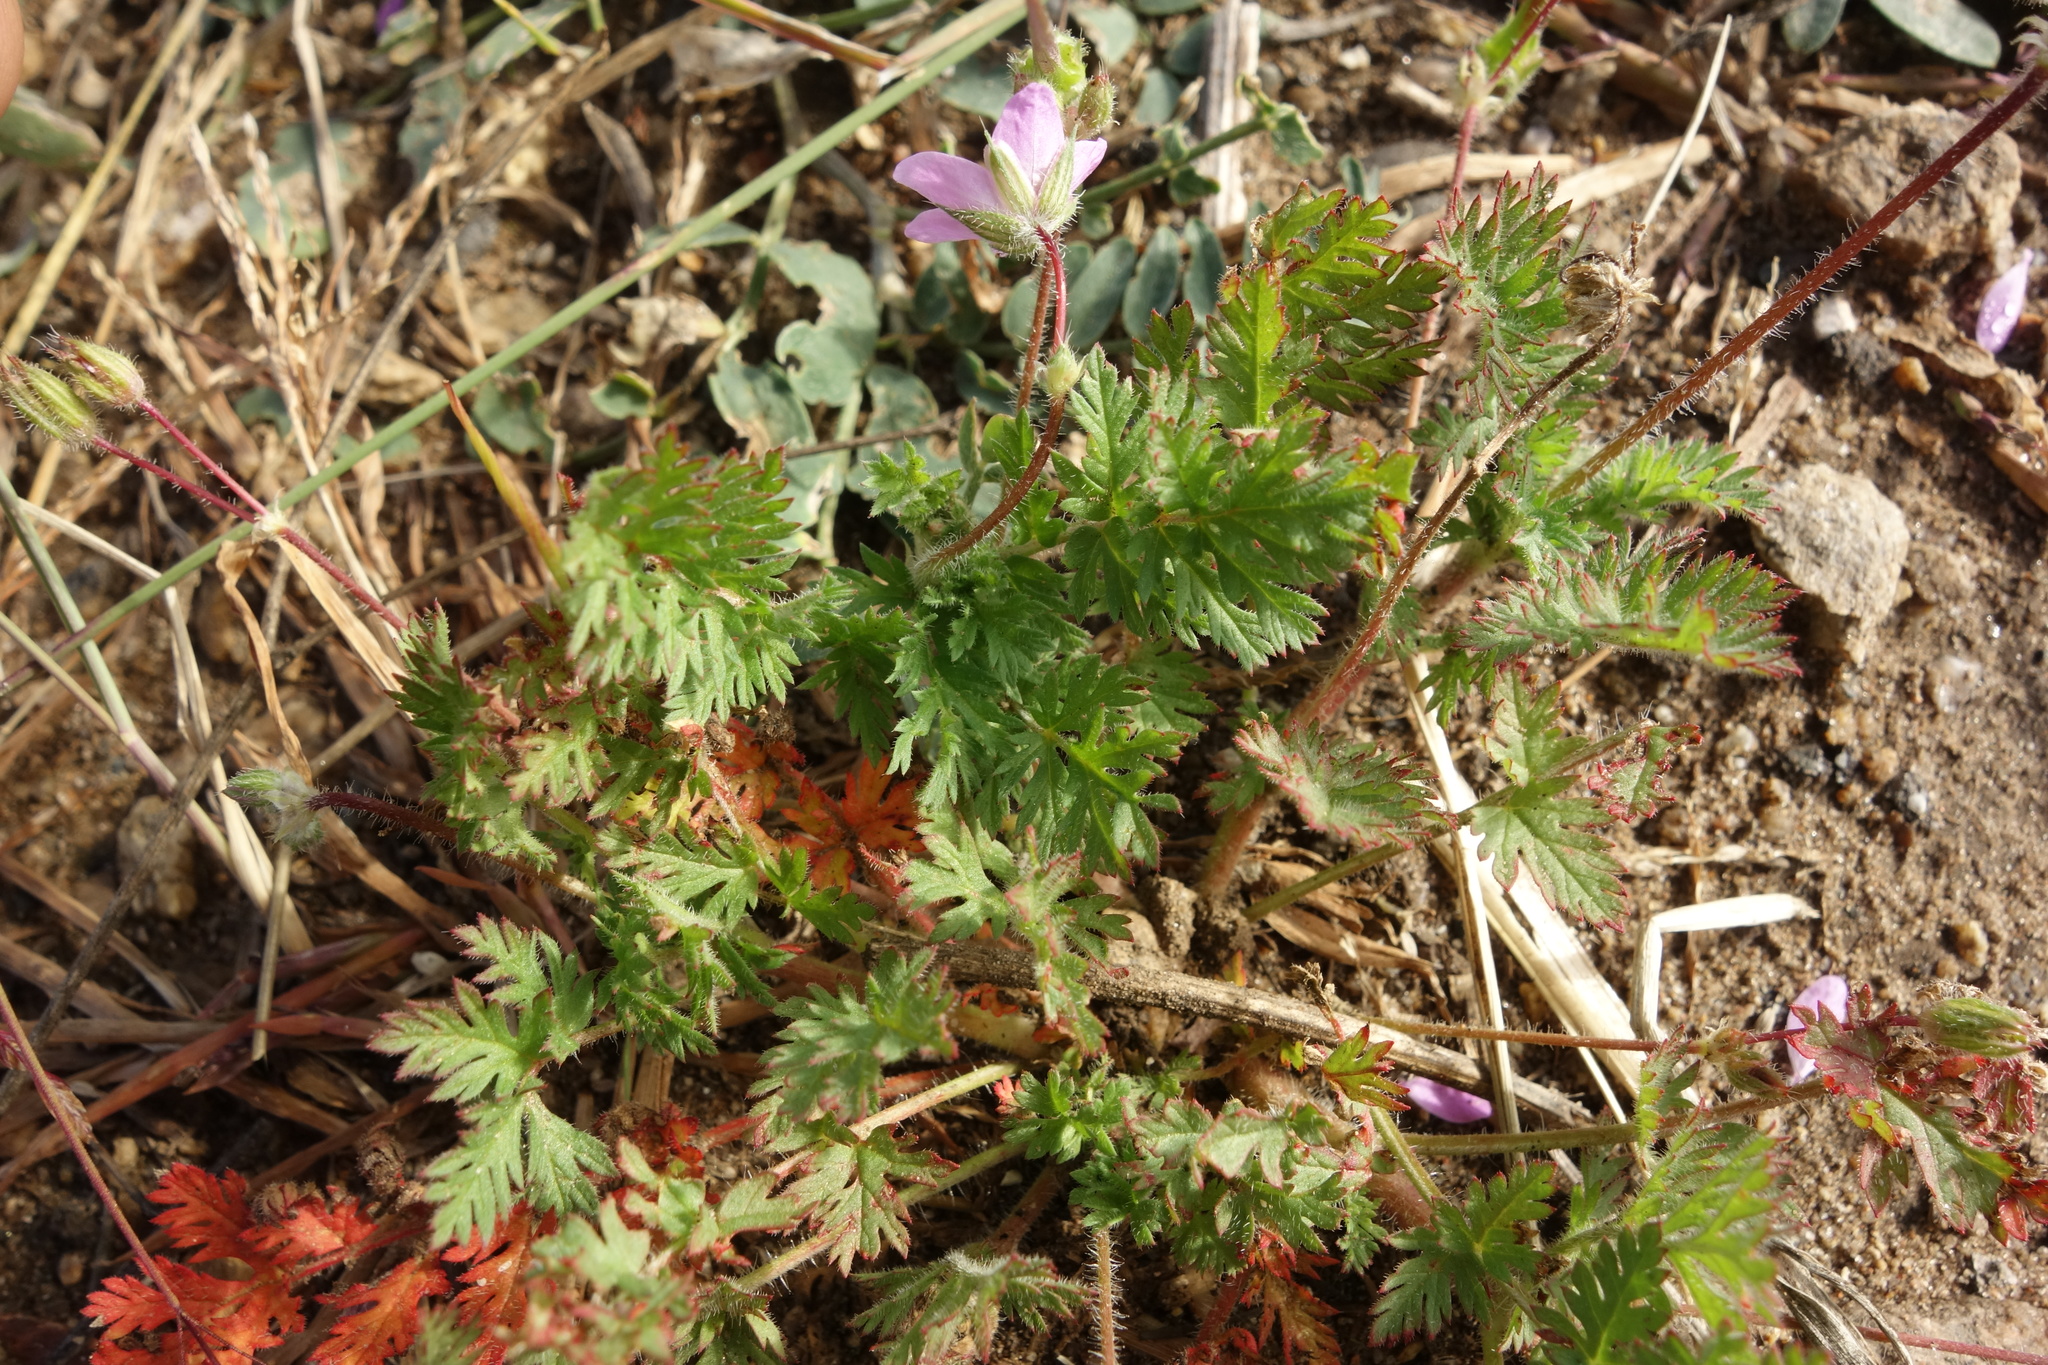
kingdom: Plantae
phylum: Tracheophyta
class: Magnoliopsida
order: Geraniales
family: Geraniaceae
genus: Erodium
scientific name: Erodium cicutarium
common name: Common stork's-bill
